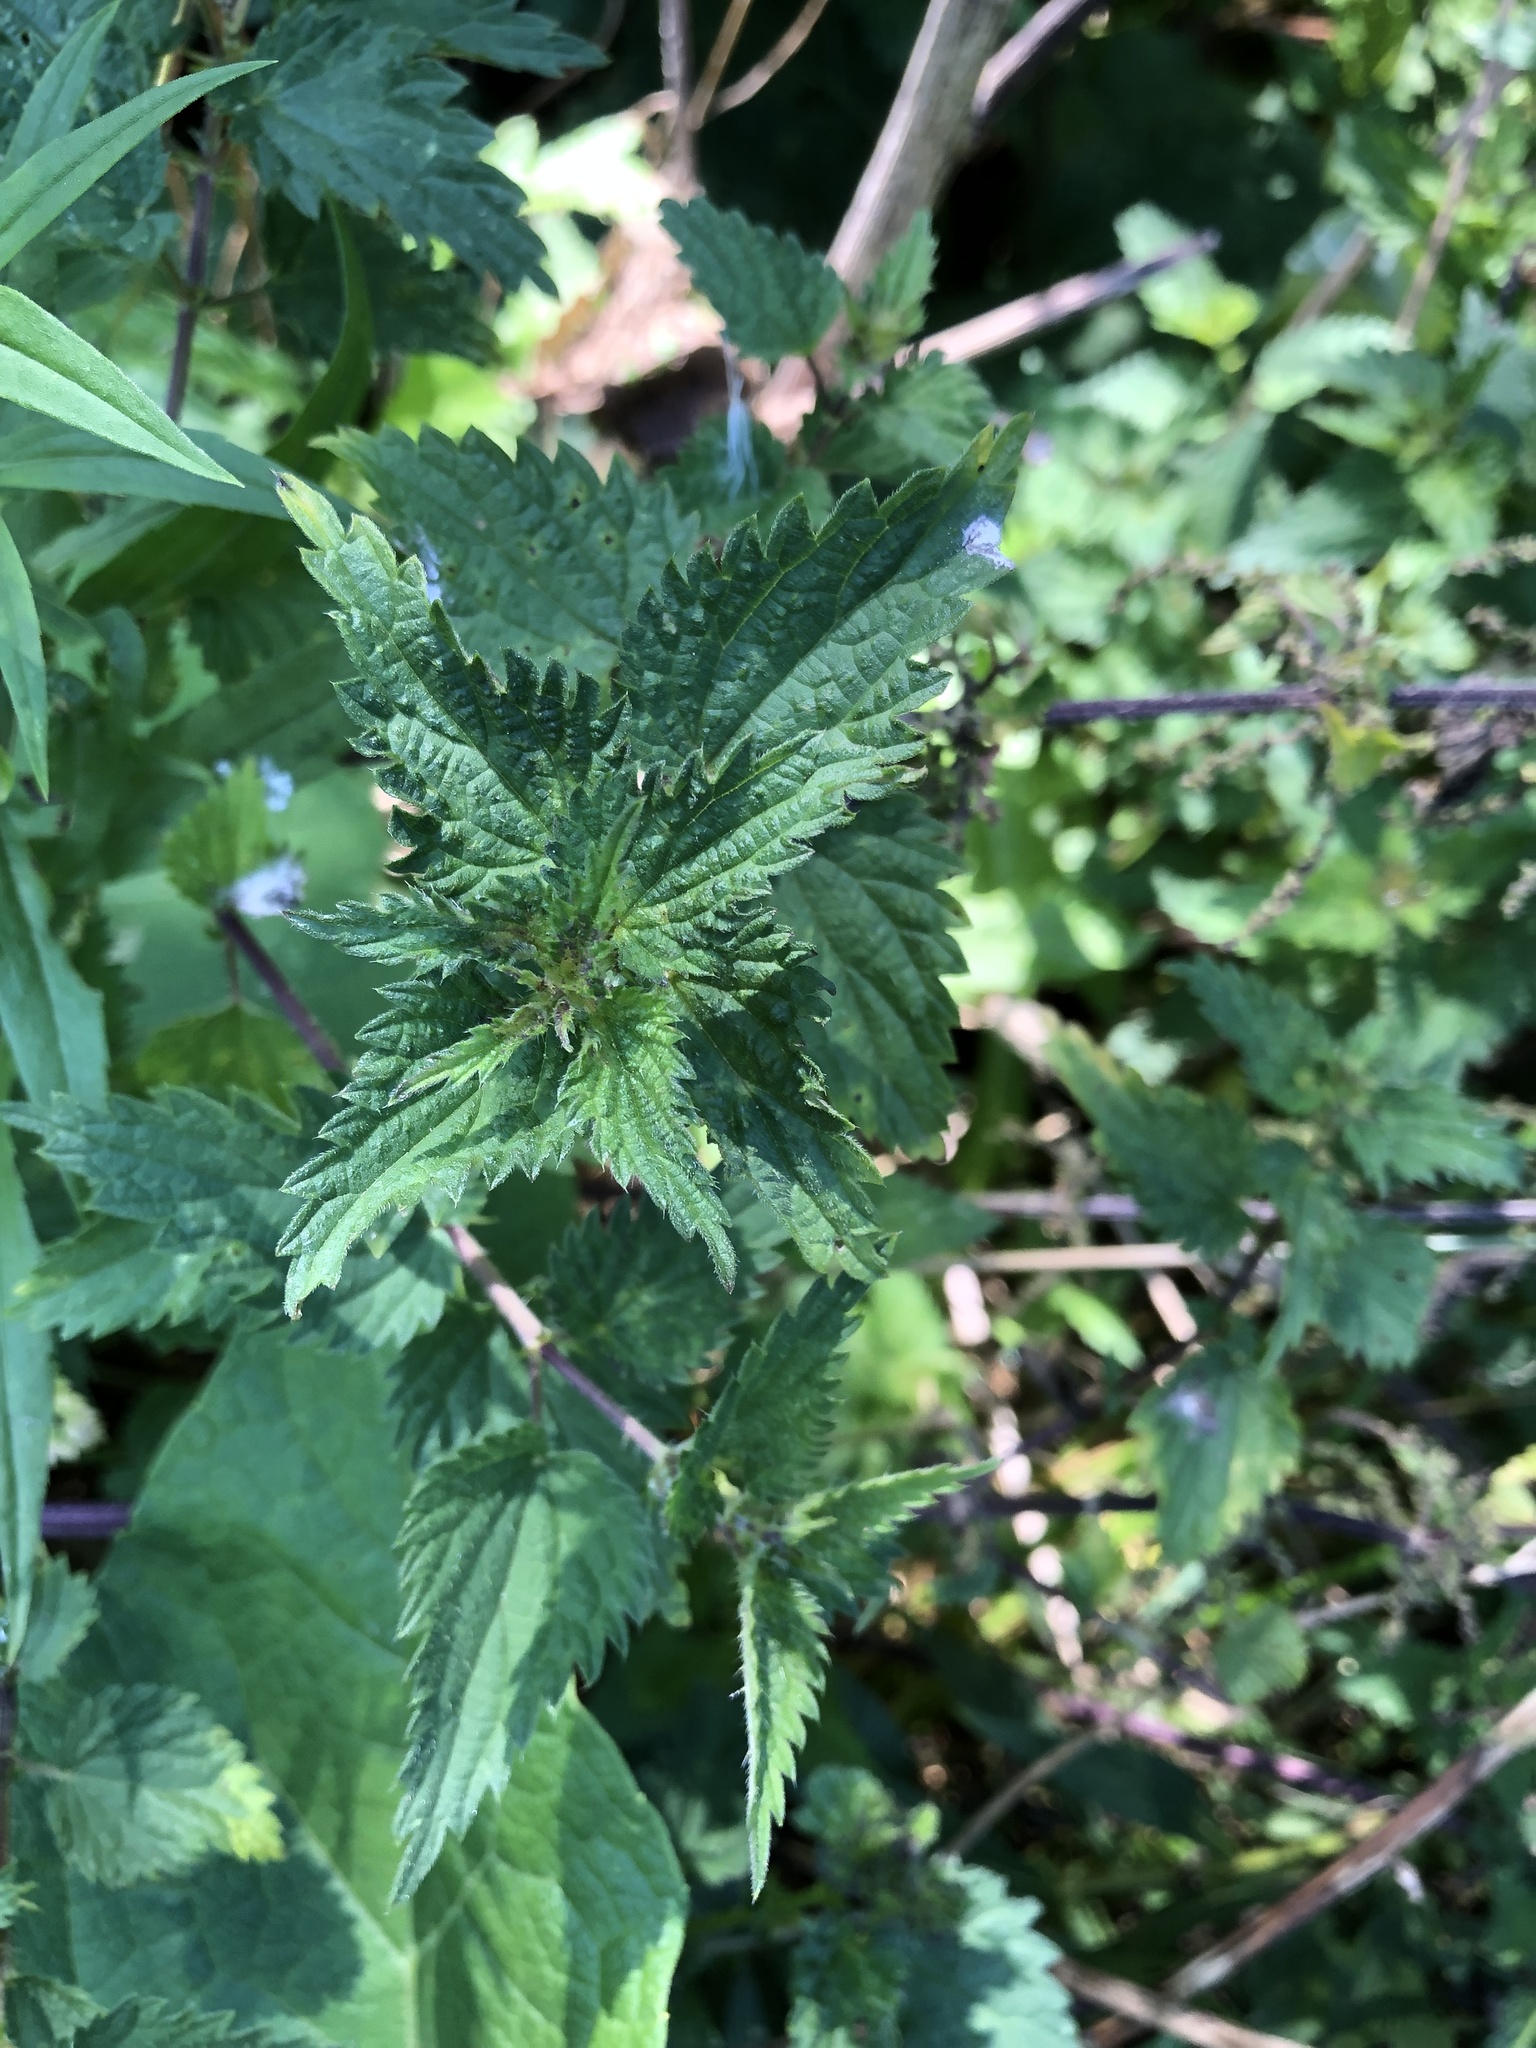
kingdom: Plantae
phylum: Tracheophyta
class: Magnoliopsida
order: Rosales
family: Urticaceae
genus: Urtica
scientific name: Urtica dioica
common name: Common nettle
